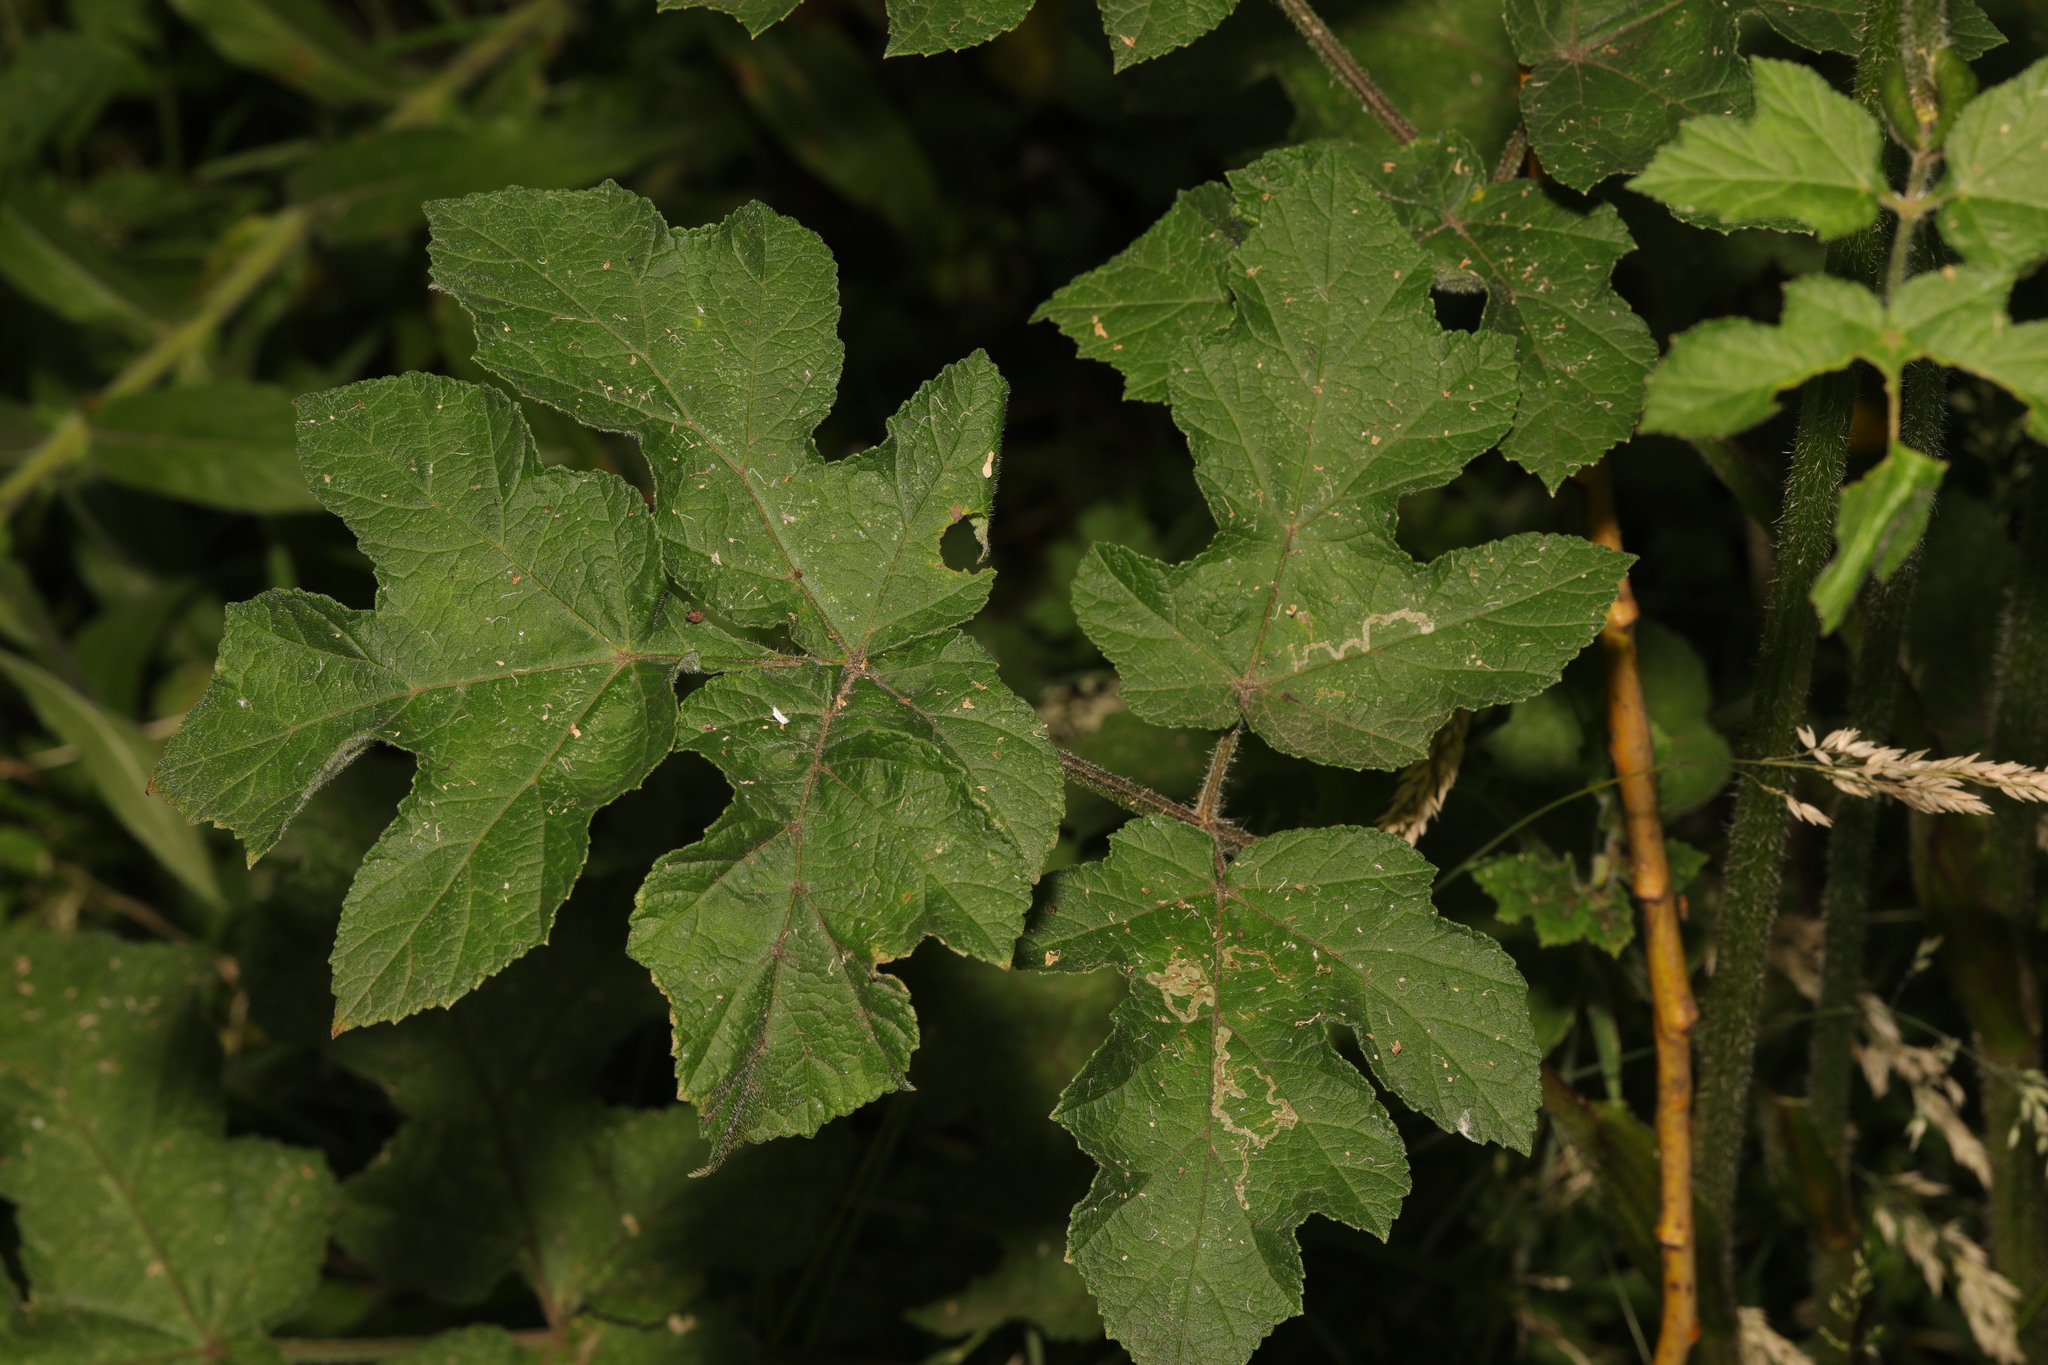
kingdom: Plantae
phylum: Tracheophyta
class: Magnoliopsida
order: Apiales
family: Apiaceae
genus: Heracleum
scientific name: Heracleum sphondylium
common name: Hogweed
